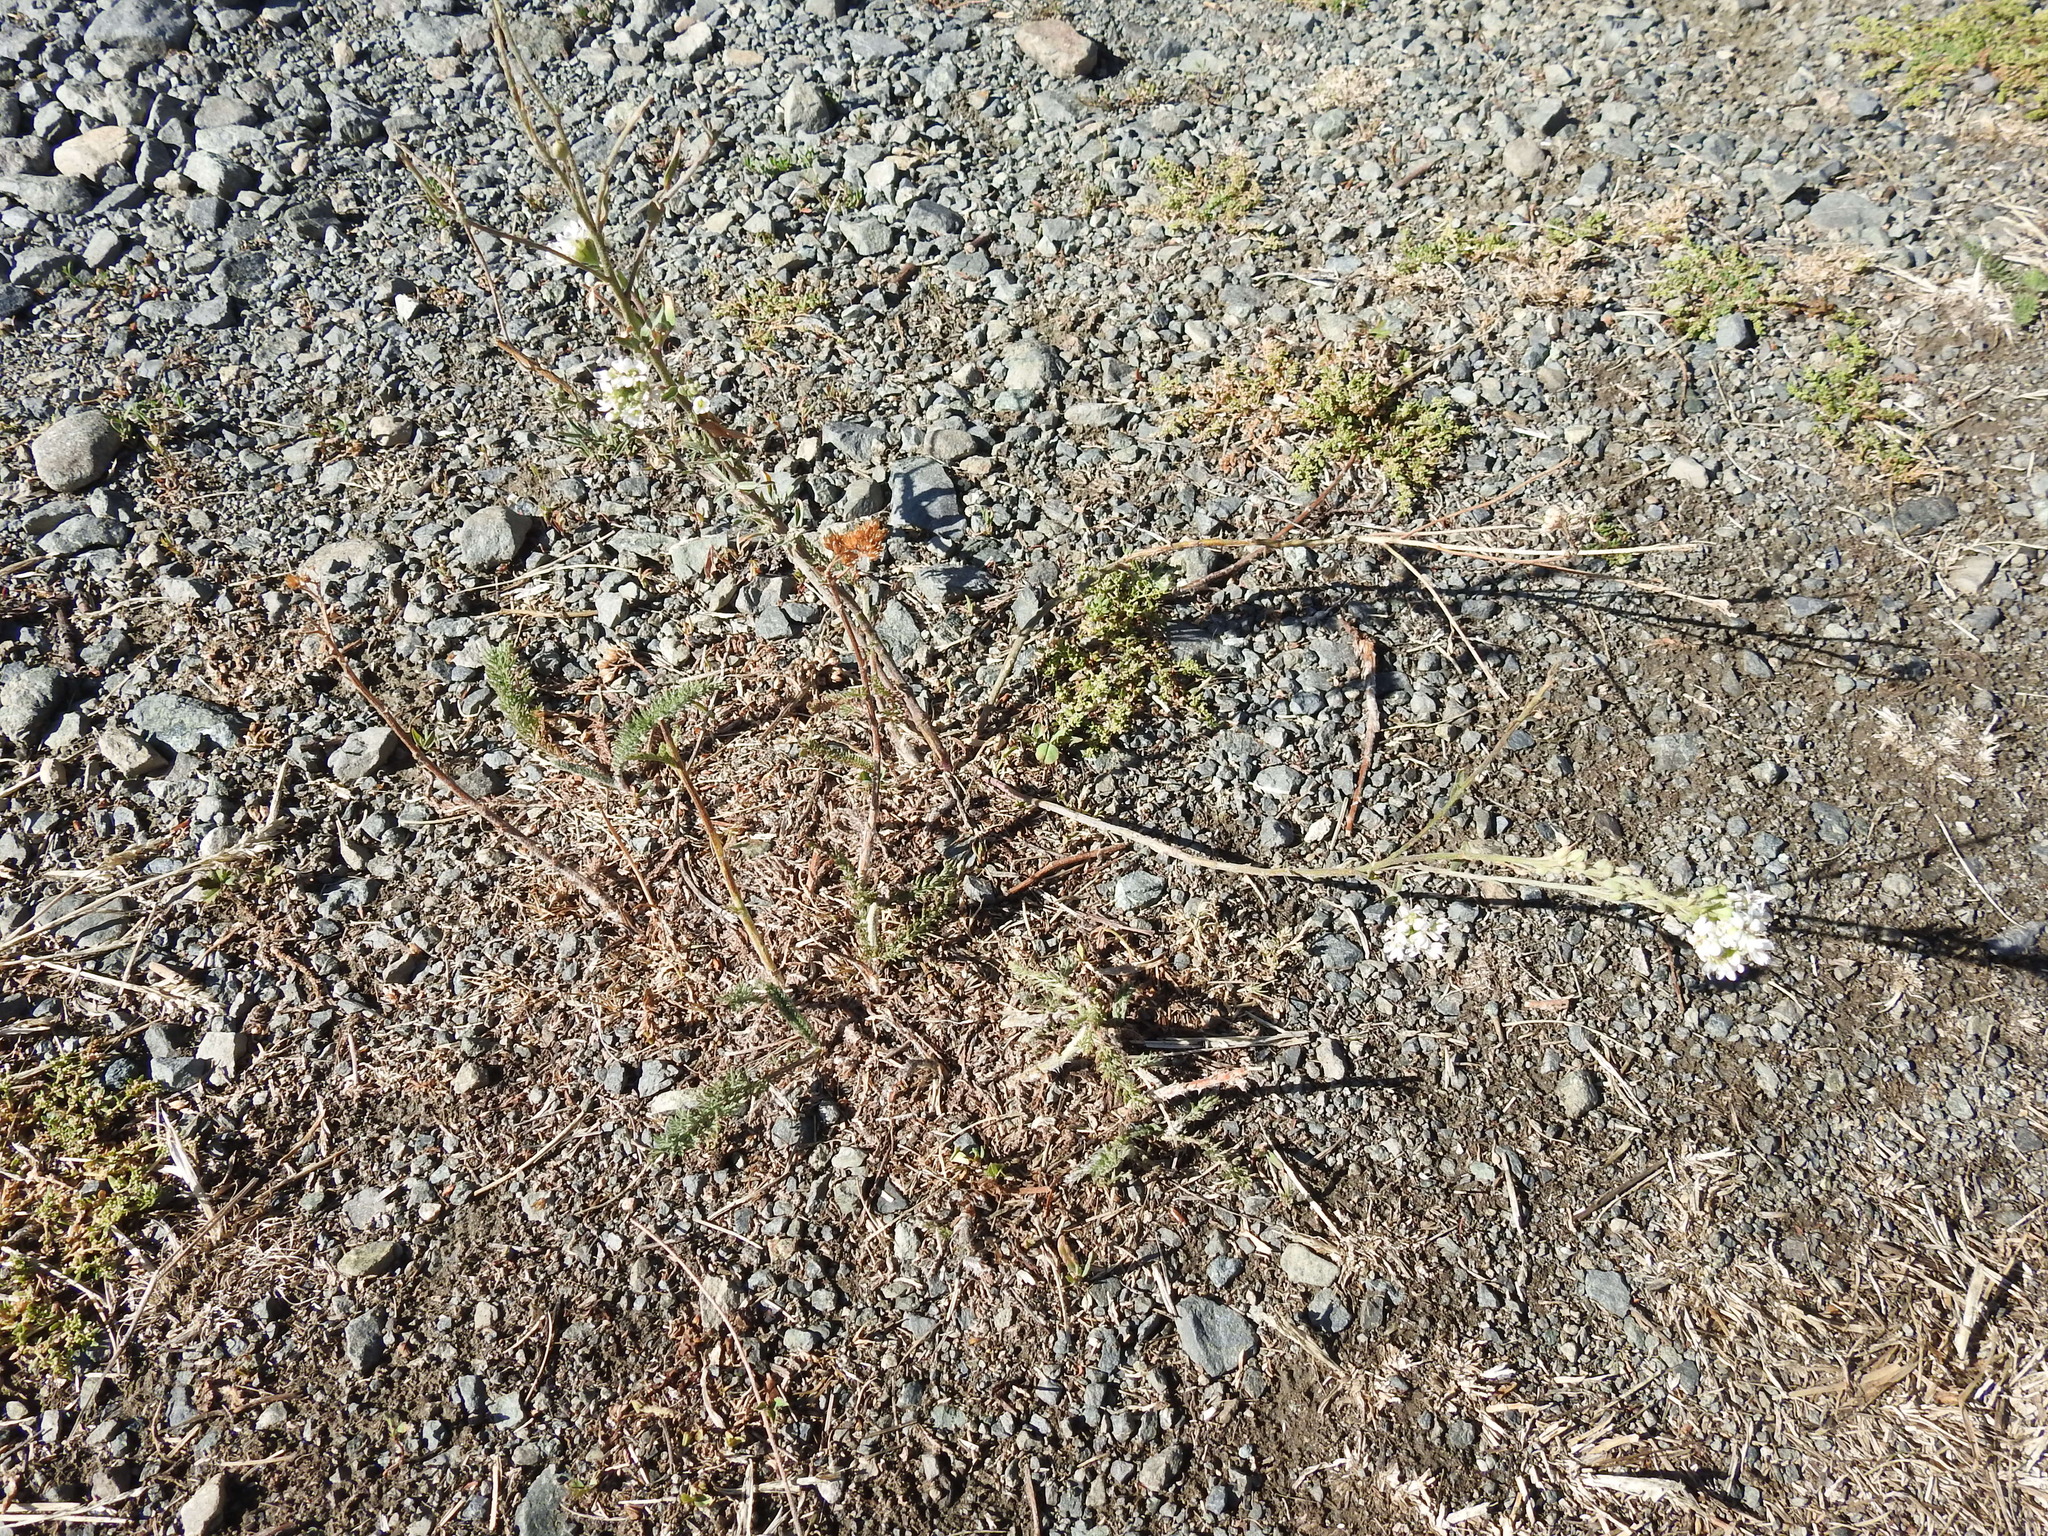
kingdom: Plantae
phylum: Tracheophyta
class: Magnoliopsida
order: Brassicales
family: Brassicaceae
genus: Berteroa
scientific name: Berteroa incana
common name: Hoary alison
